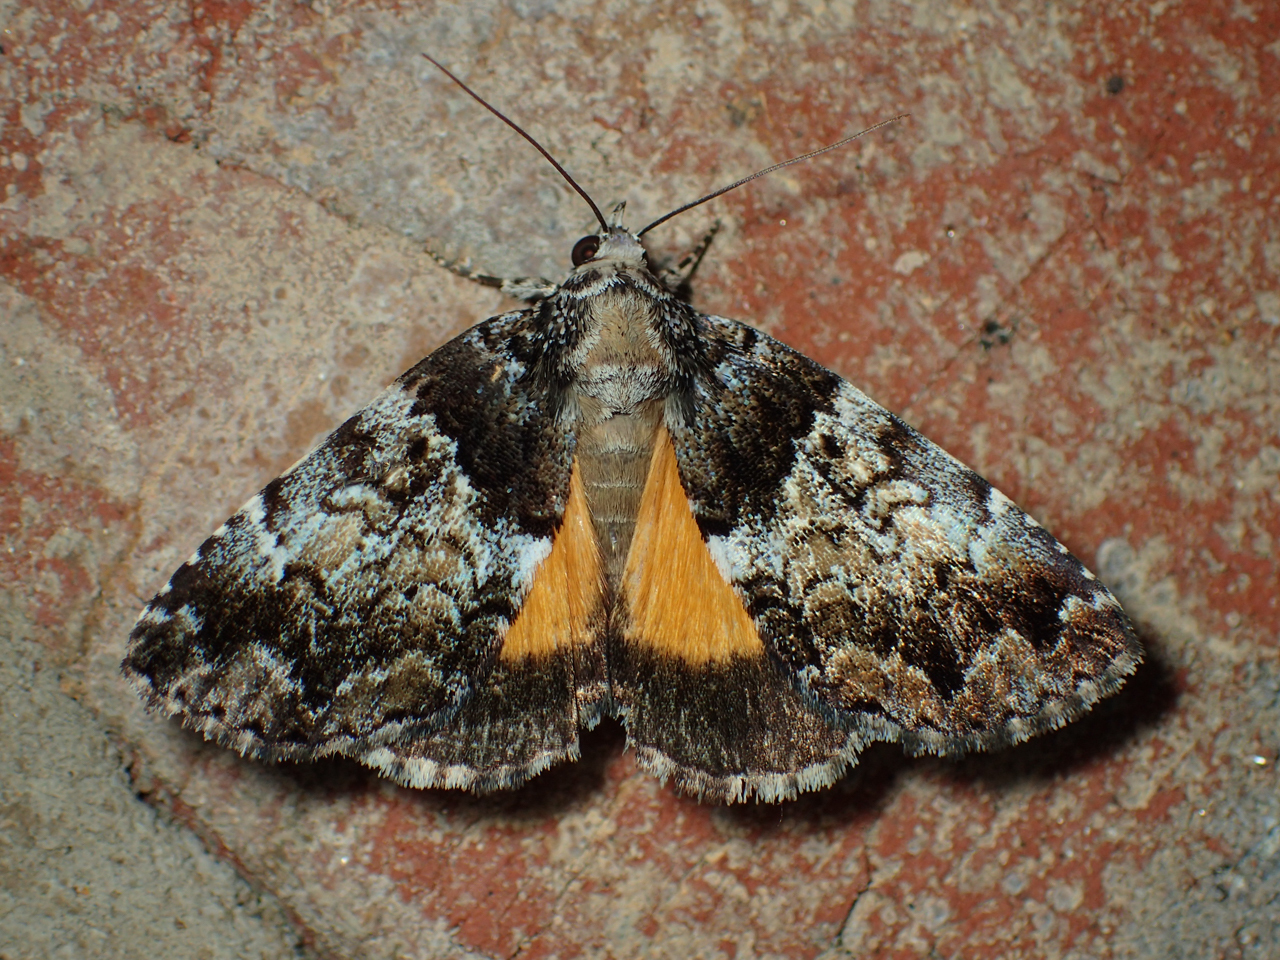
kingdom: Animalia
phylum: Arthropoda
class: Insecta
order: Lepidoptera
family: Erebidae
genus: Allotria
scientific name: Allotria elonympha
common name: False underwing
